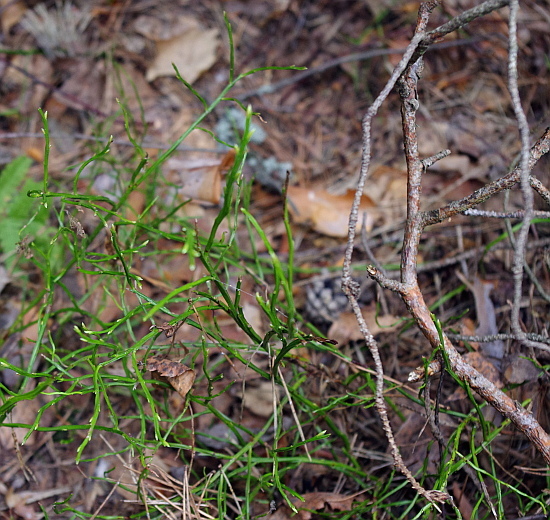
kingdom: Plantae
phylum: Tracheophyta
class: Magnoliopsida
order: Ericales
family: Ericaceae
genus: Vaccinium
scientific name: Vaccinium myrtillus
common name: Bilberry
